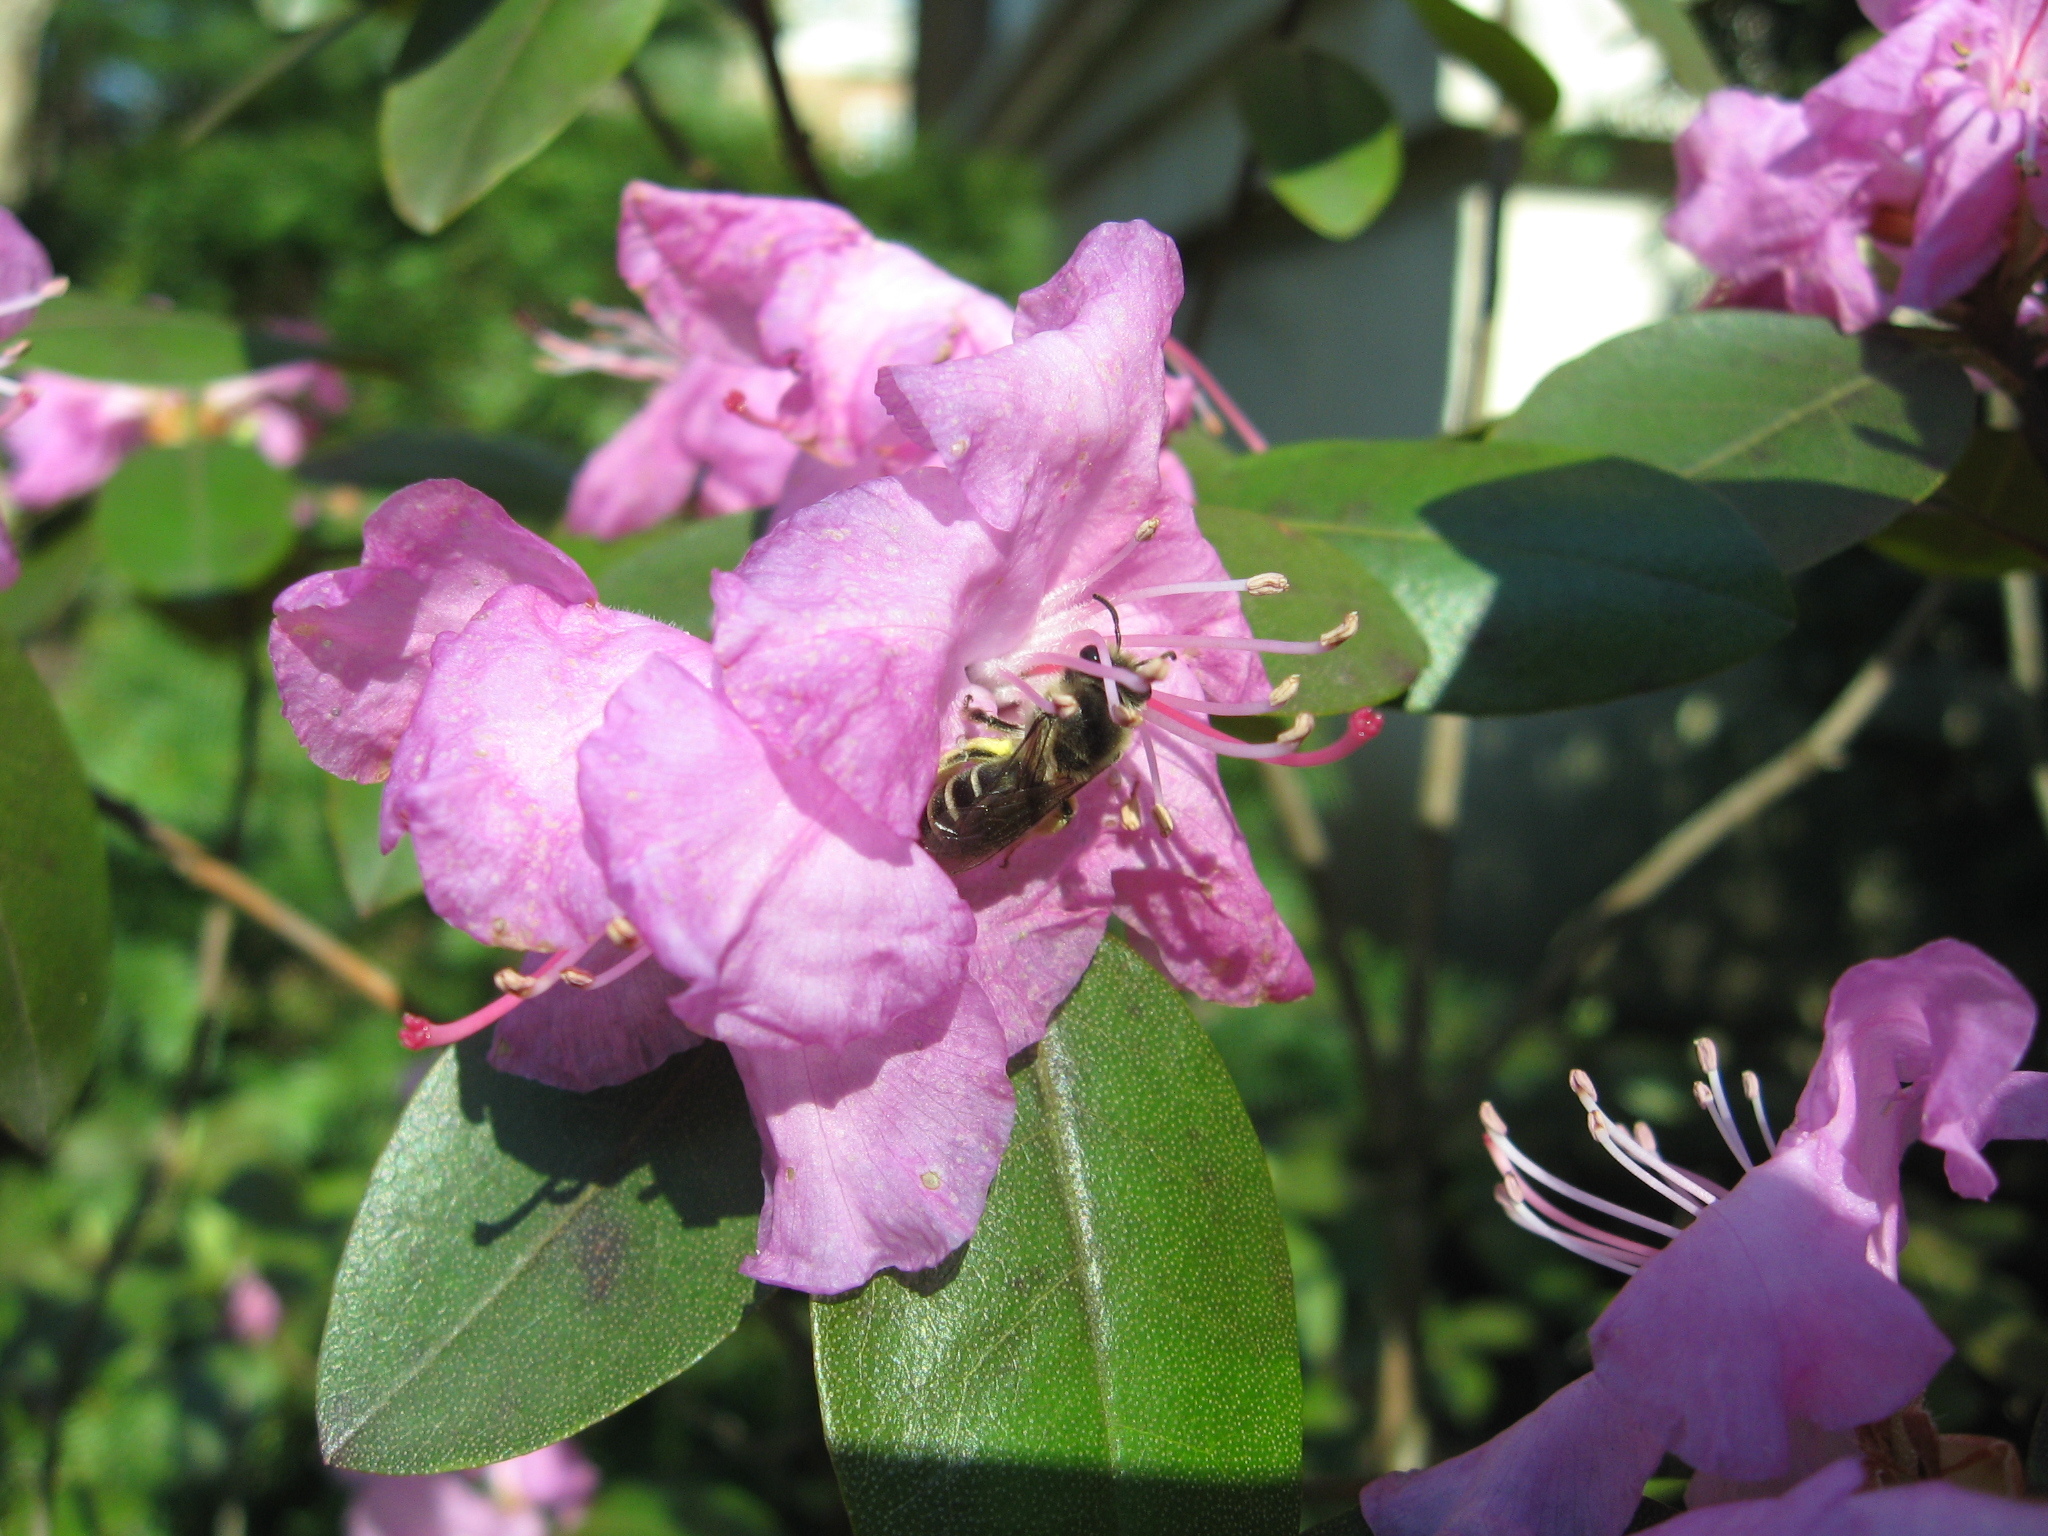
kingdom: Animalia
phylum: Arthropoda
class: Insecta
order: Hymenoptera
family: Colletidae
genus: Colletes
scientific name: Colletes inaequalis
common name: Unequal cellophane bee
